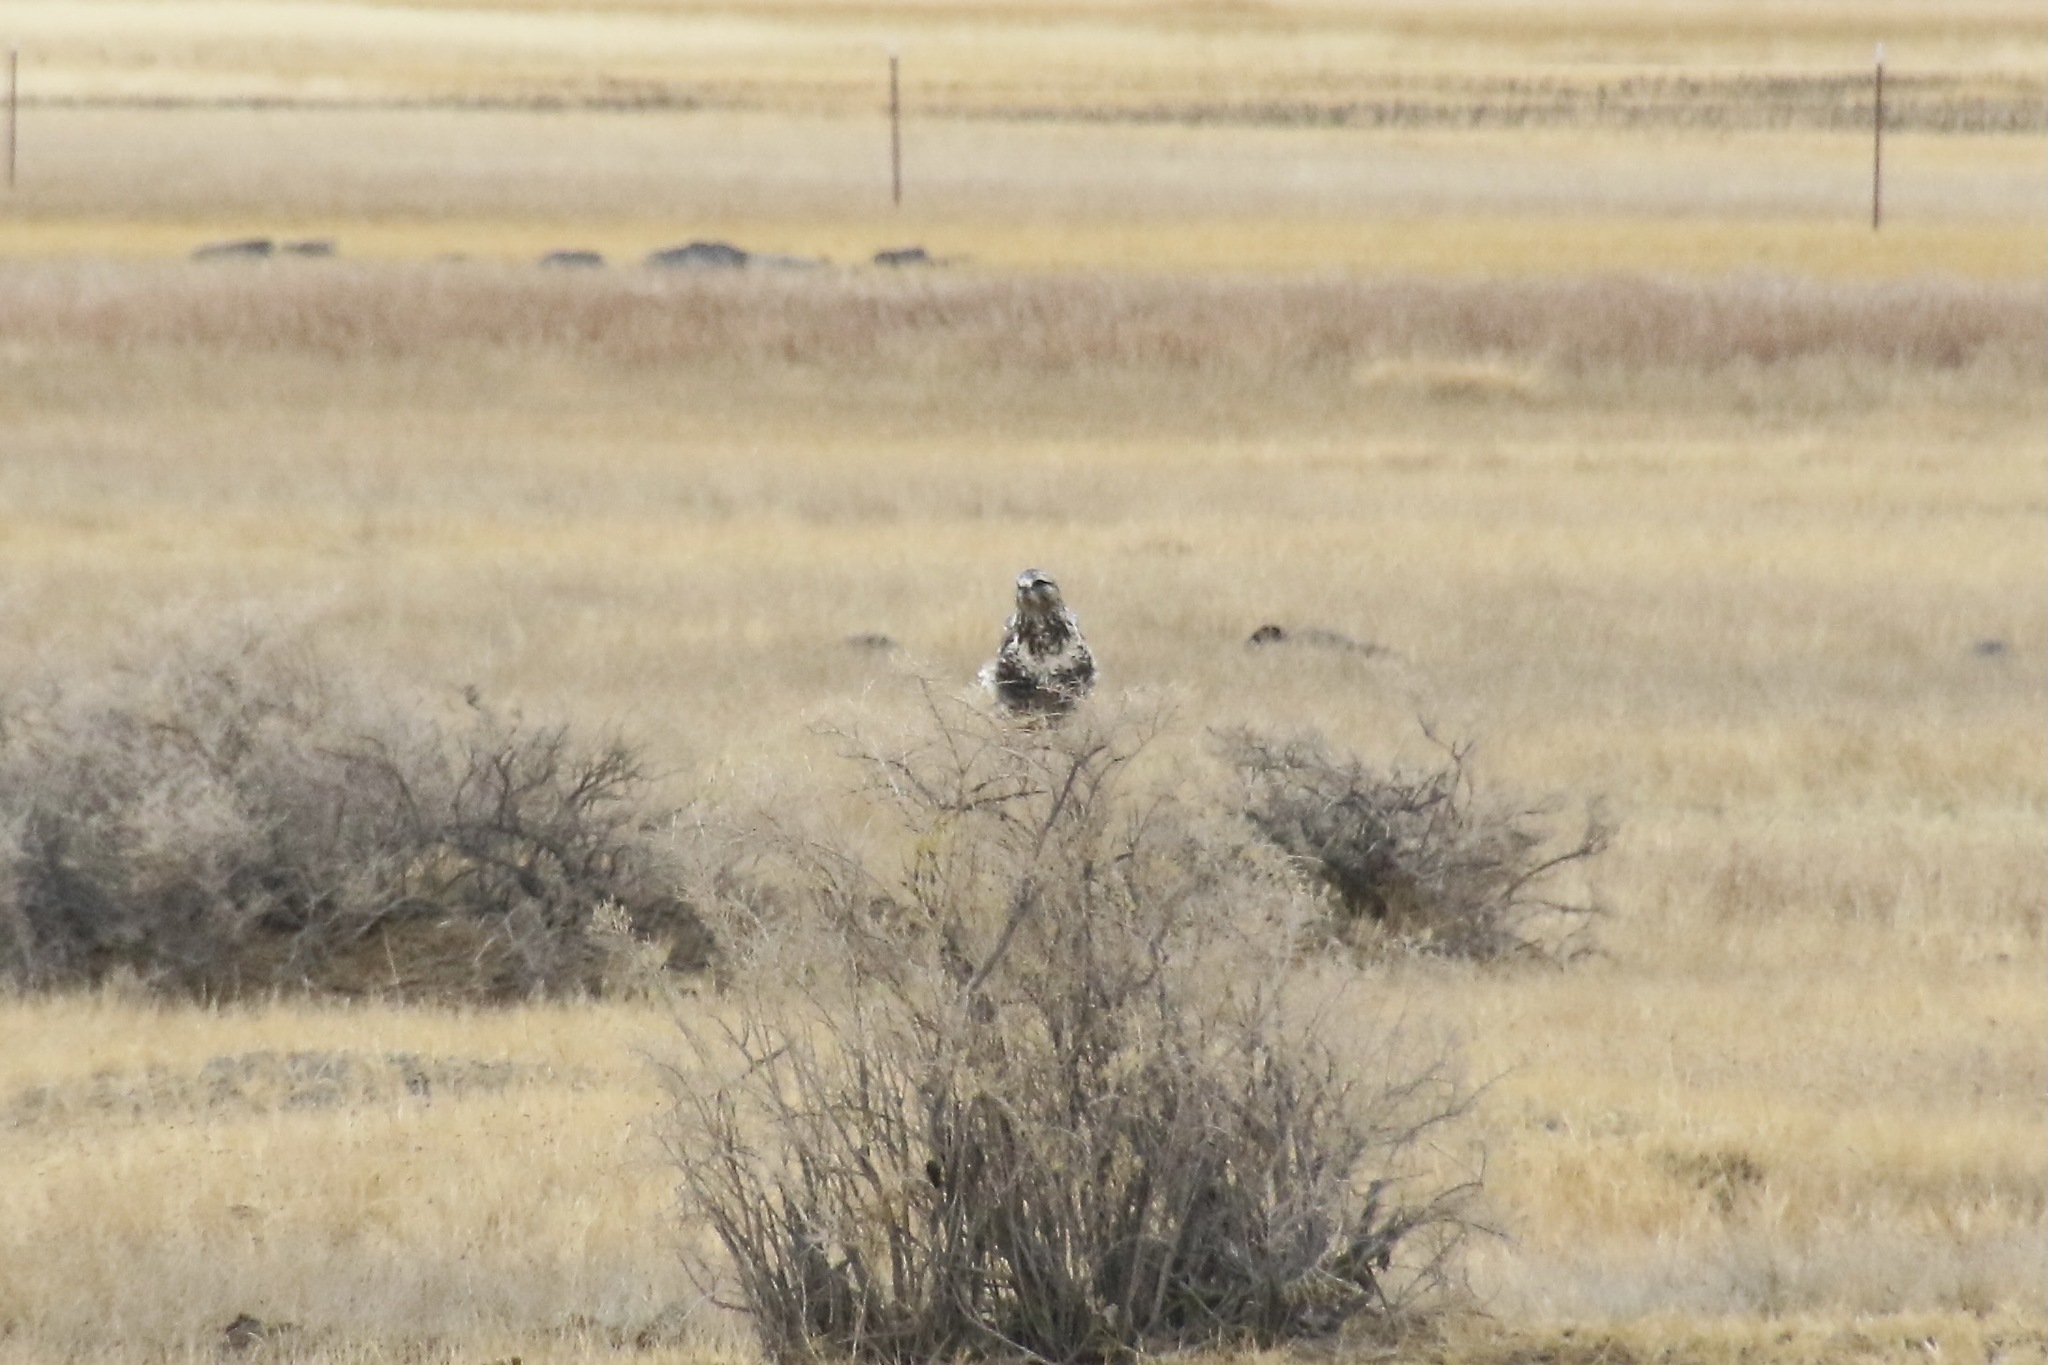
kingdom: Animalia
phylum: Chordata
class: Aves
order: Accipitriformes
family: Accipitridae
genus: Buteo
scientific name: Buteo lagopus
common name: Rough-legged buzzard
